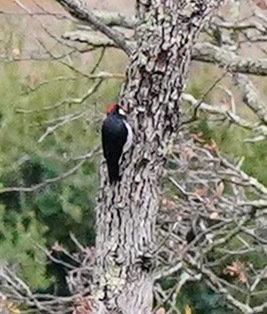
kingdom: Animalia
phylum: Chordata
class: Aves
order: Piciformes
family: Picidae
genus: Melanerpes
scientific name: Melanerpes formicivorus
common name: Acorn woodpecker
